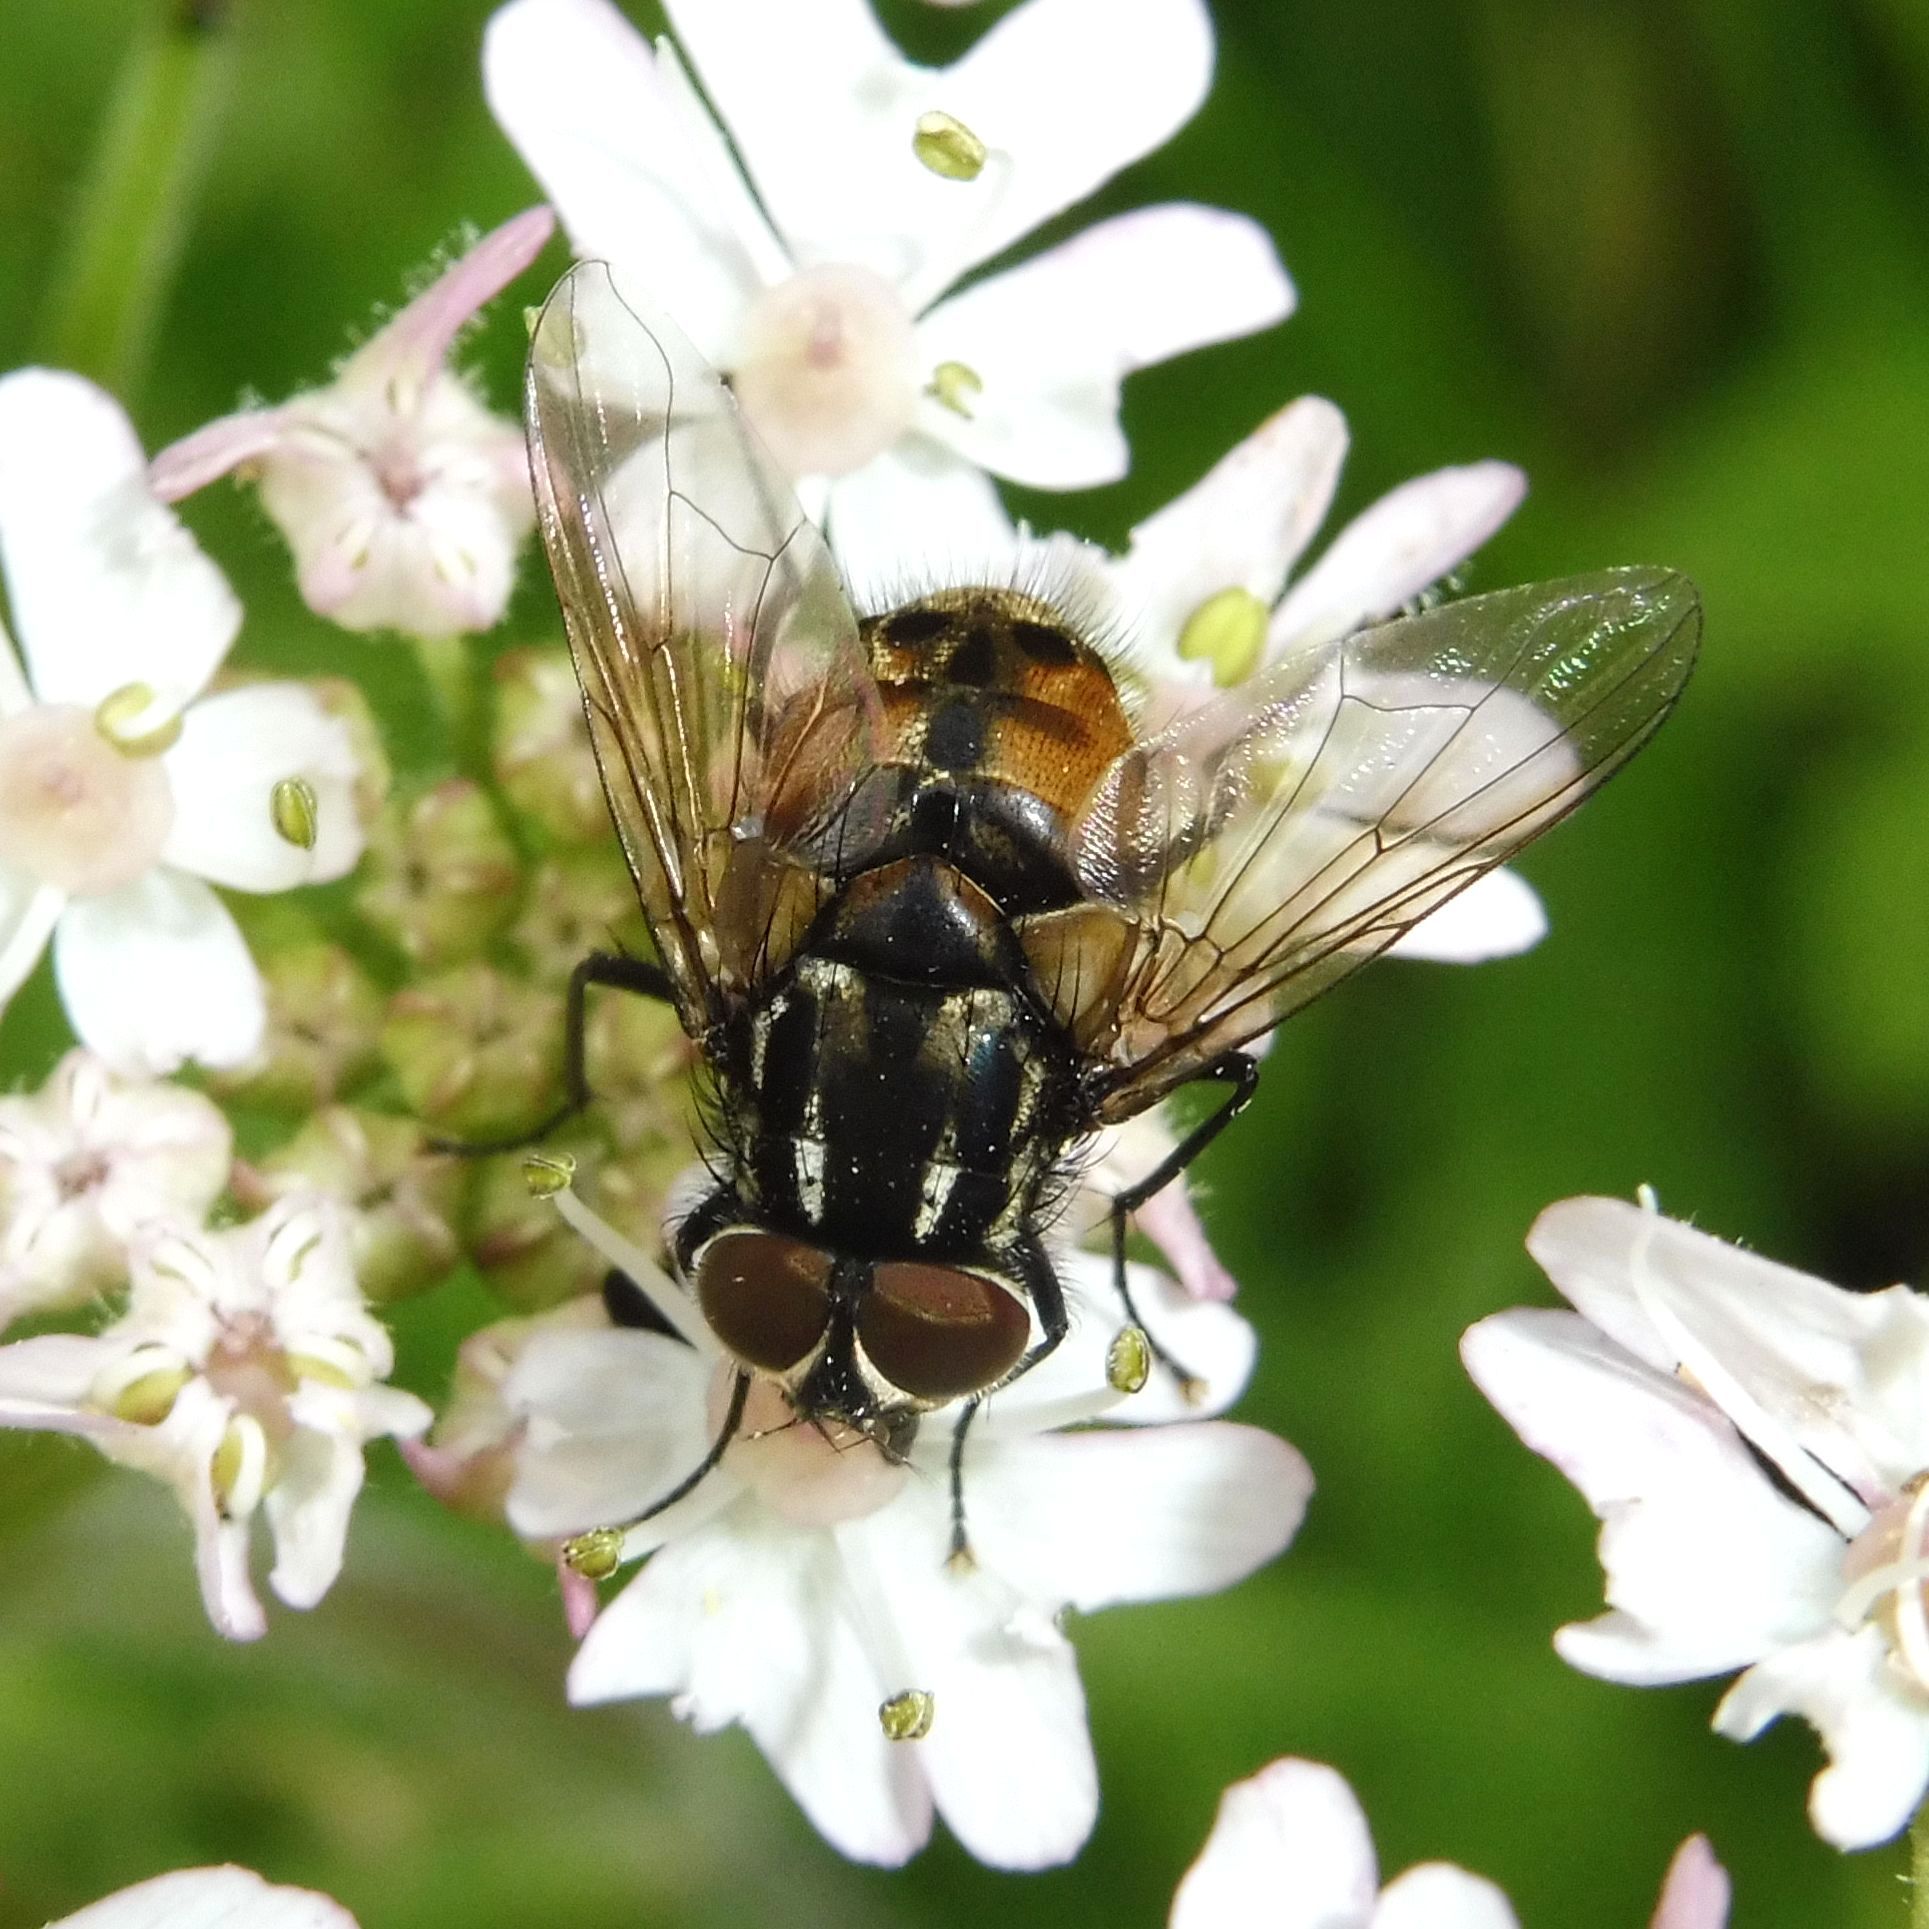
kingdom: Animalia
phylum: Arthropoda
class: Insecta
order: Diptera
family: Muscidae
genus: Graphomya
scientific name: Graphomya maculata
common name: Muscid fly
